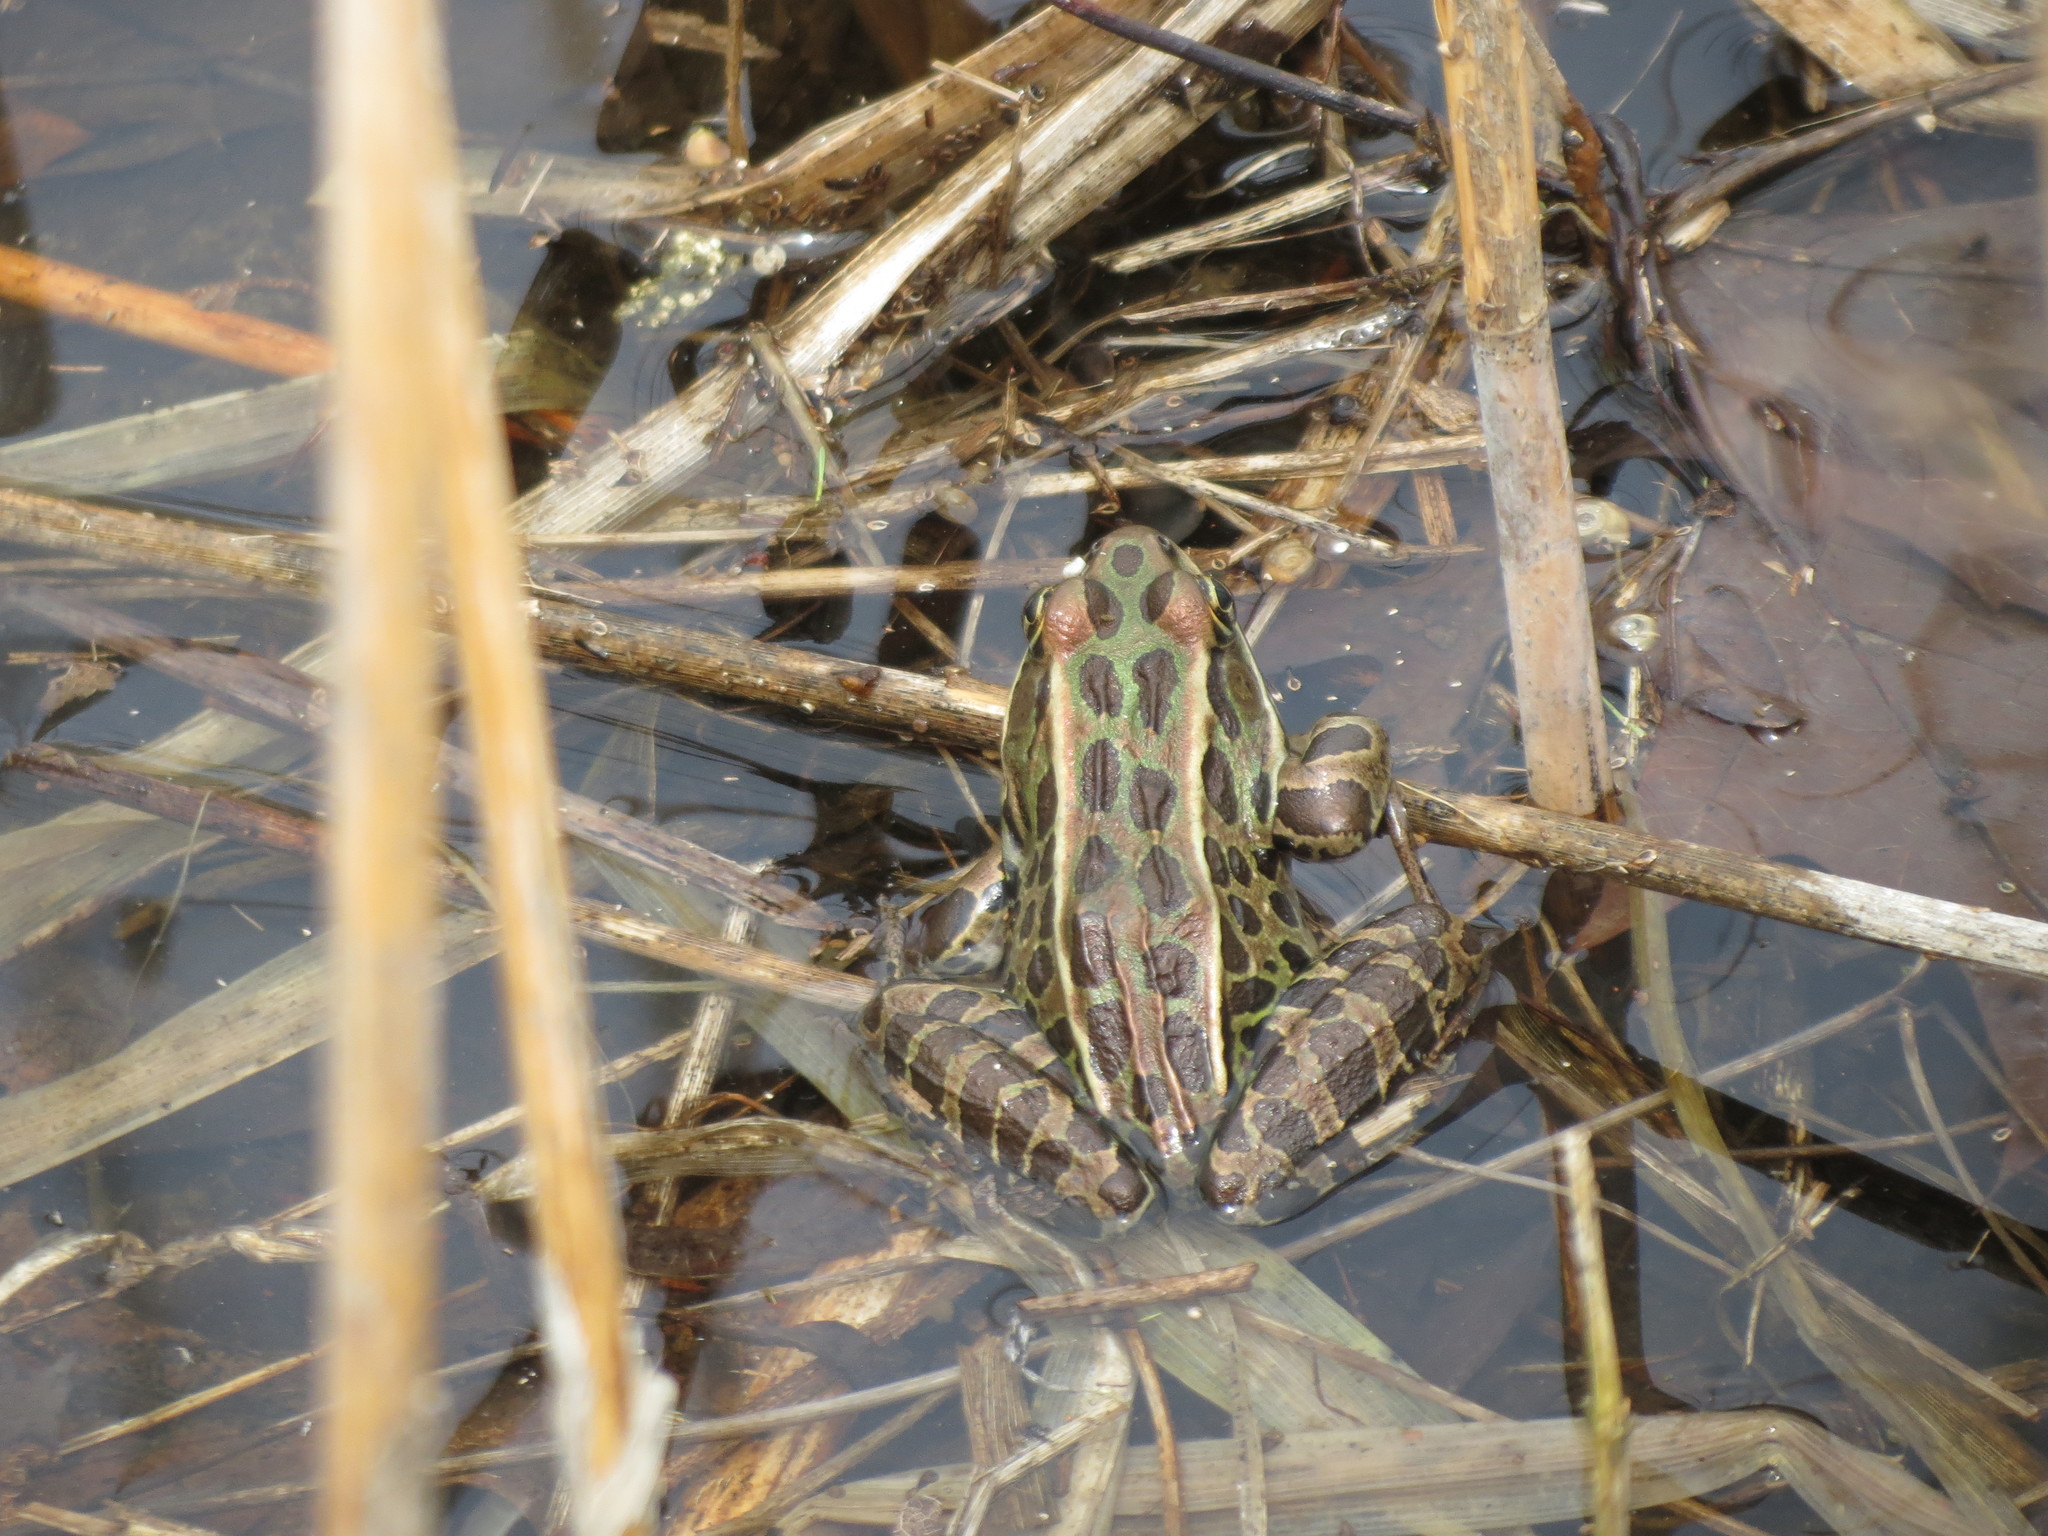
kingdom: Animalia
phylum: Chordata
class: Amphibia
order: Anura
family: Ranidae
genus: Lithobates
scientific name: Lithobates pipiens
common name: Northern leopard frog
